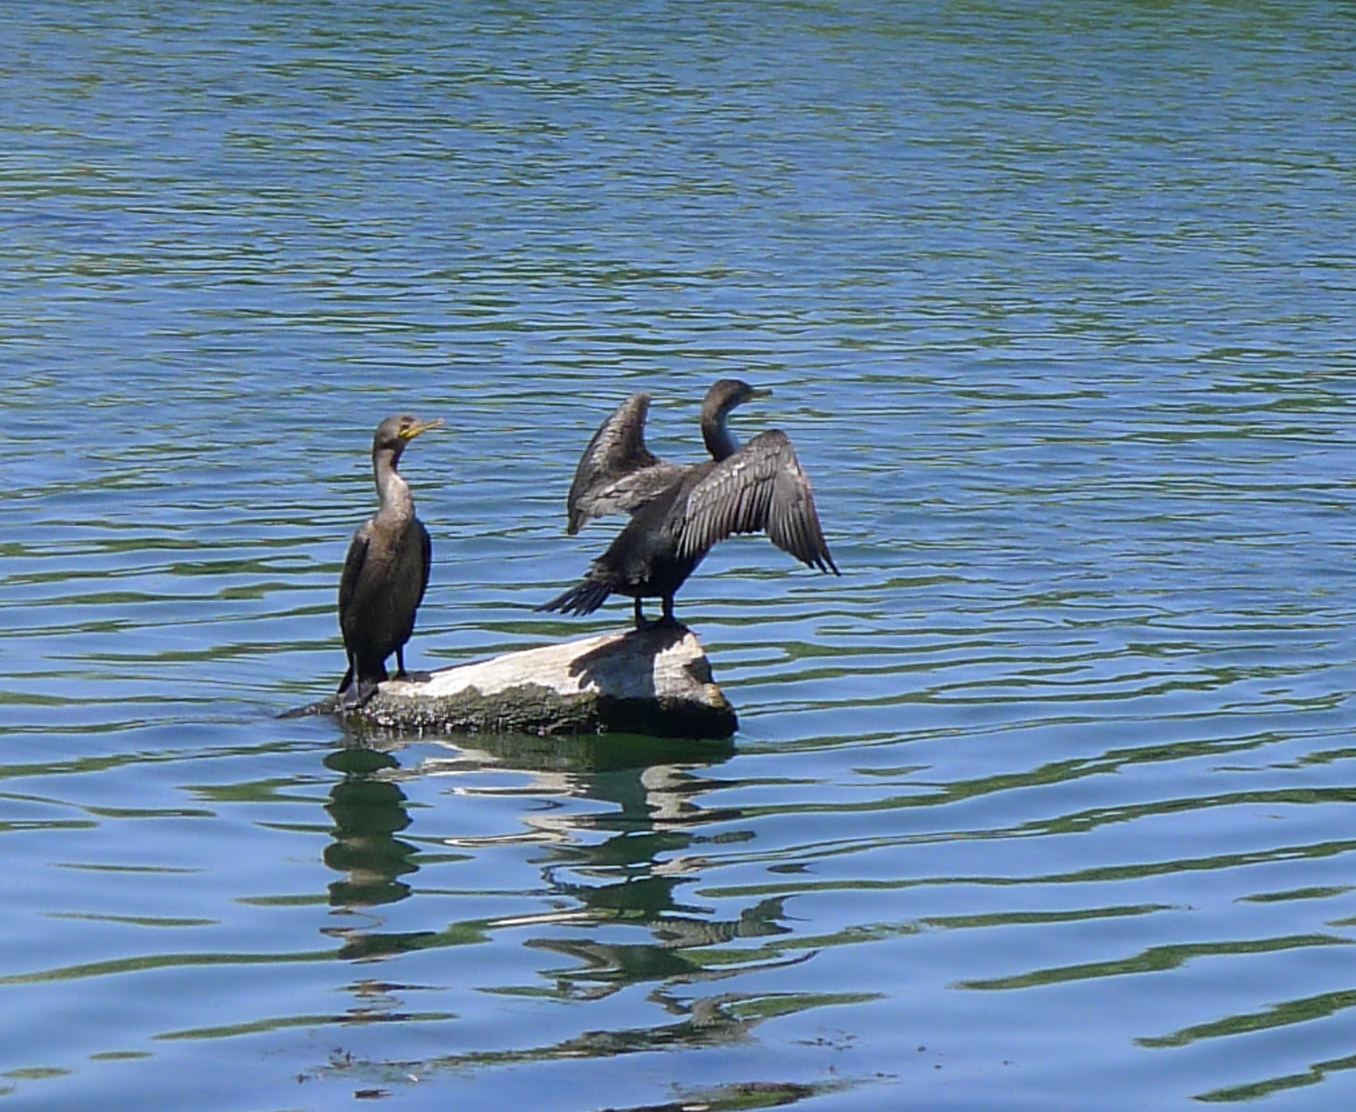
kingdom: Animalia
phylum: Chordata
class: Aves
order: Suliformes
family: Phalacrocoracidae
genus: Phalacrocorax
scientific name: Phalacrocorax auritus
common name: Double-crested cormorant
